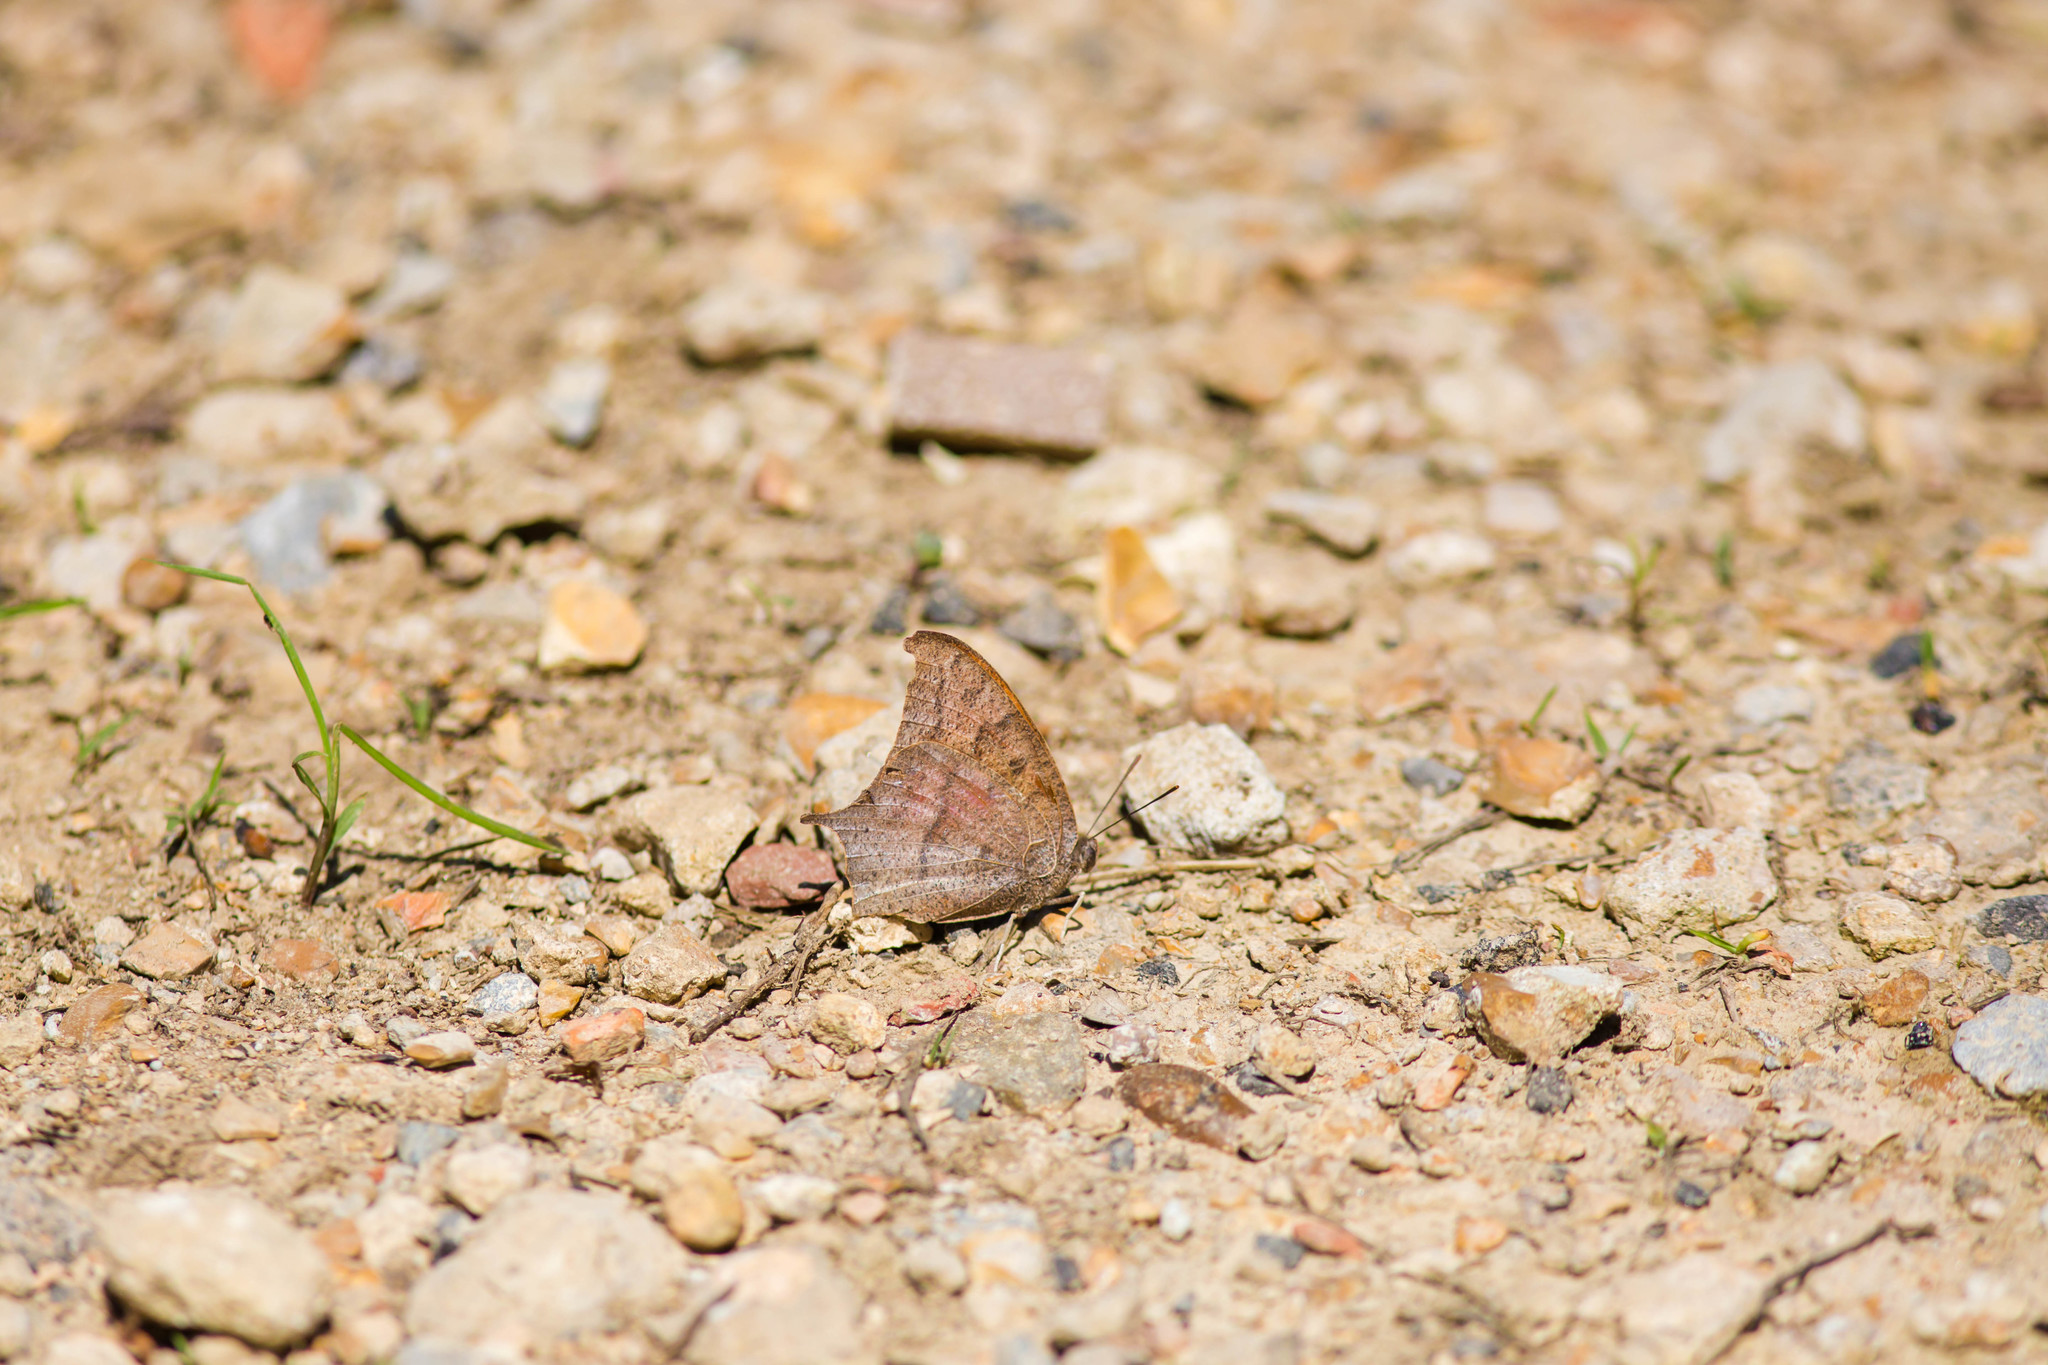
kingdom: Animalia
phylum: Arthropoda
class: Insecta
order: Lepidoptera
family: Nymphalidae
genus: Anaea
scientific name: Anaea andria
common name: Goatweed leafwing
